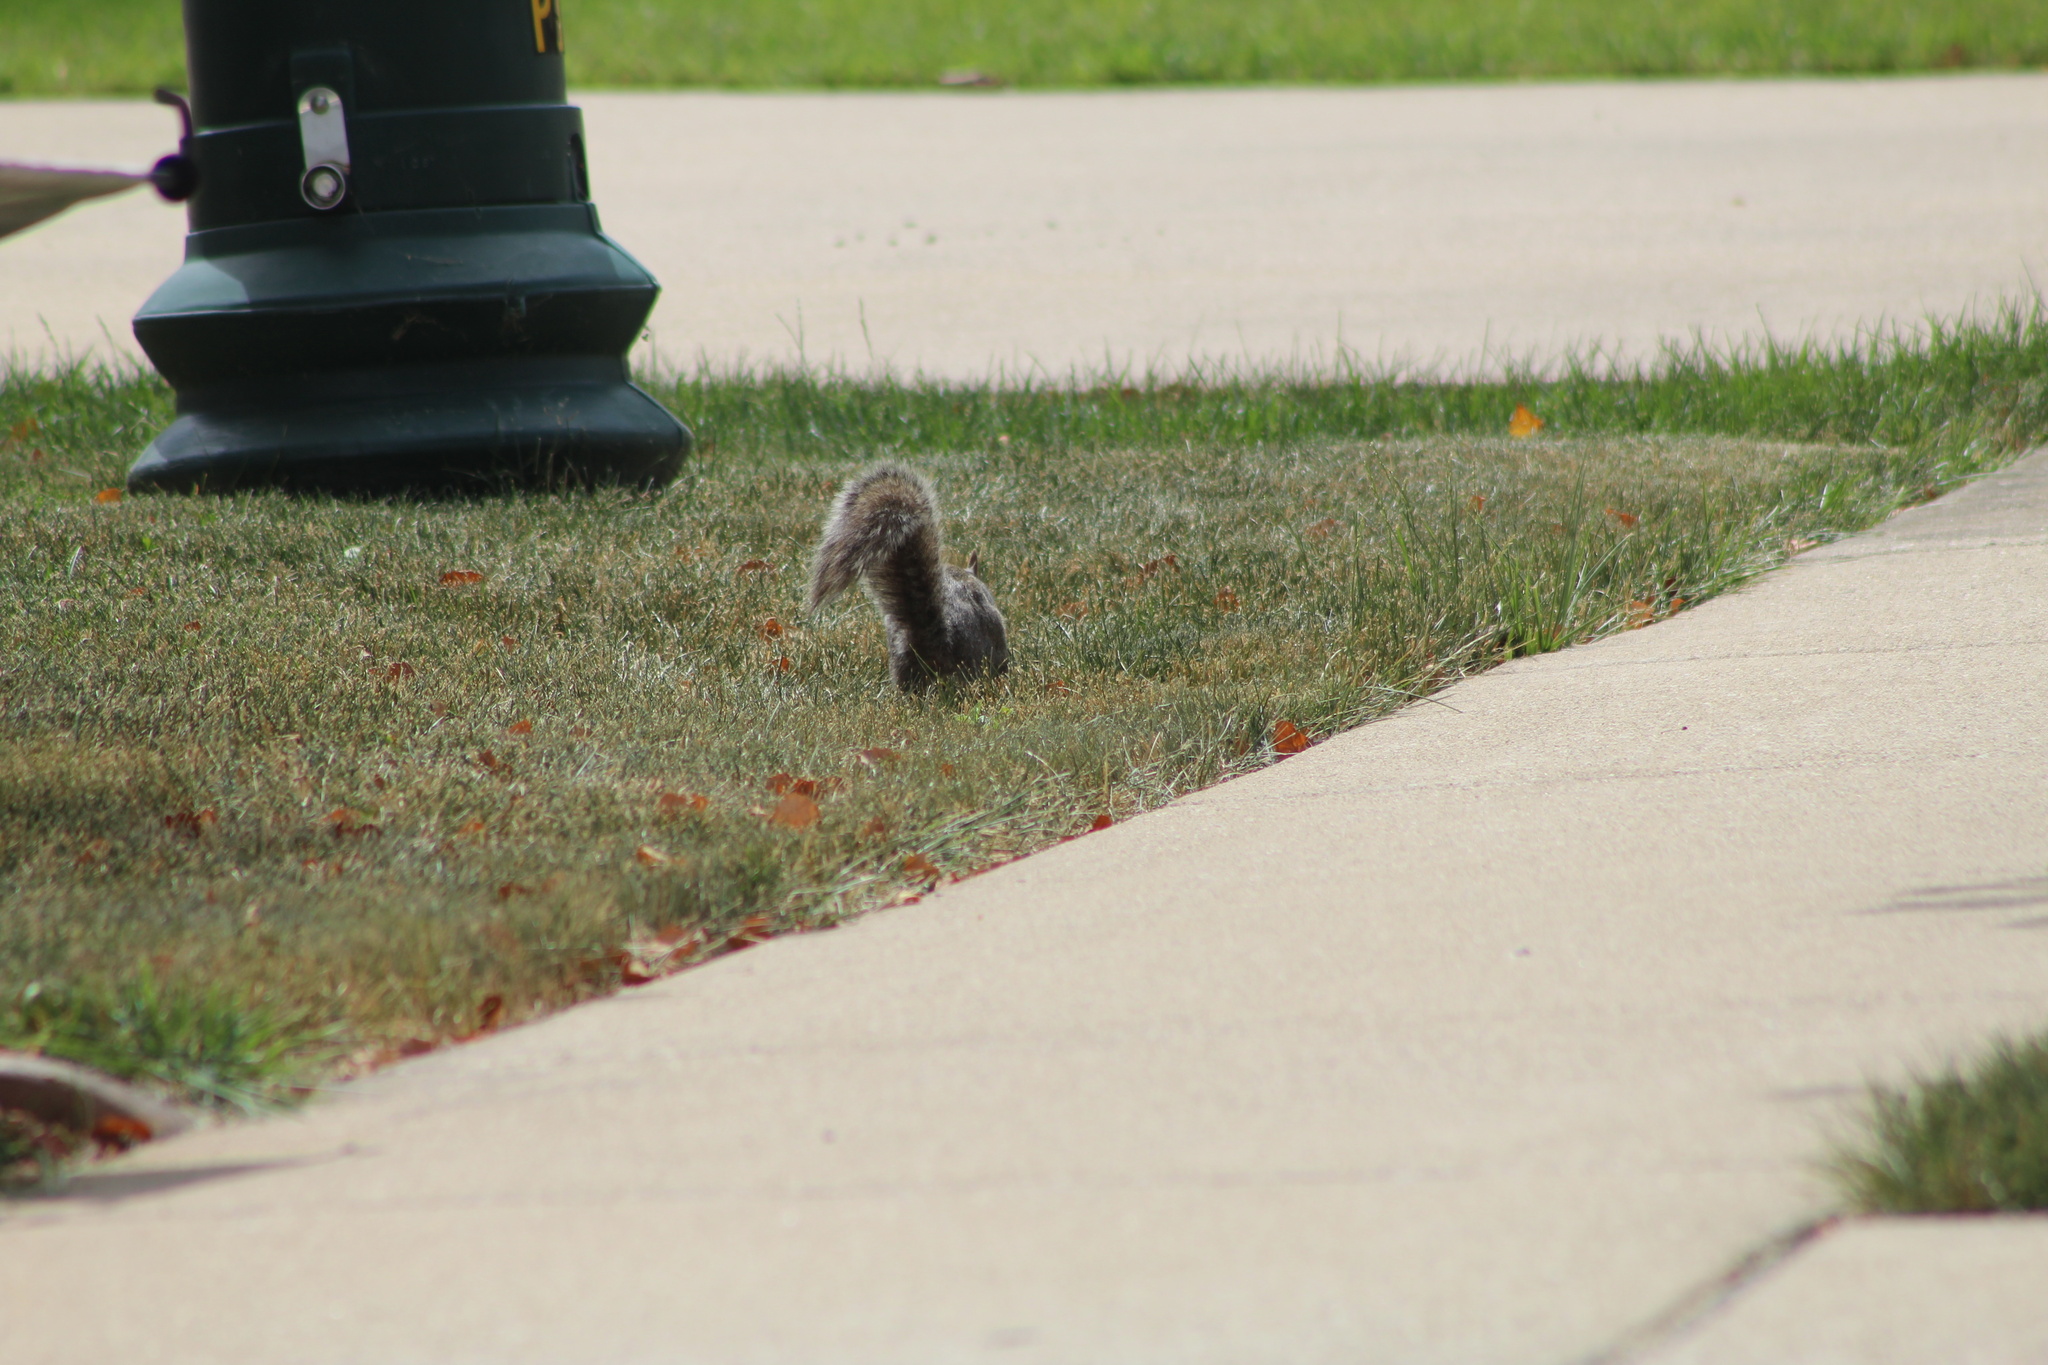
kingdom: Animalia
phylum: Chordata
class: Mammalia
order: Rodentia
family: Sciuridae
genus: Sciurus
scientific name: Sciurus carolinensis
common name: Eastern gray squirrel
